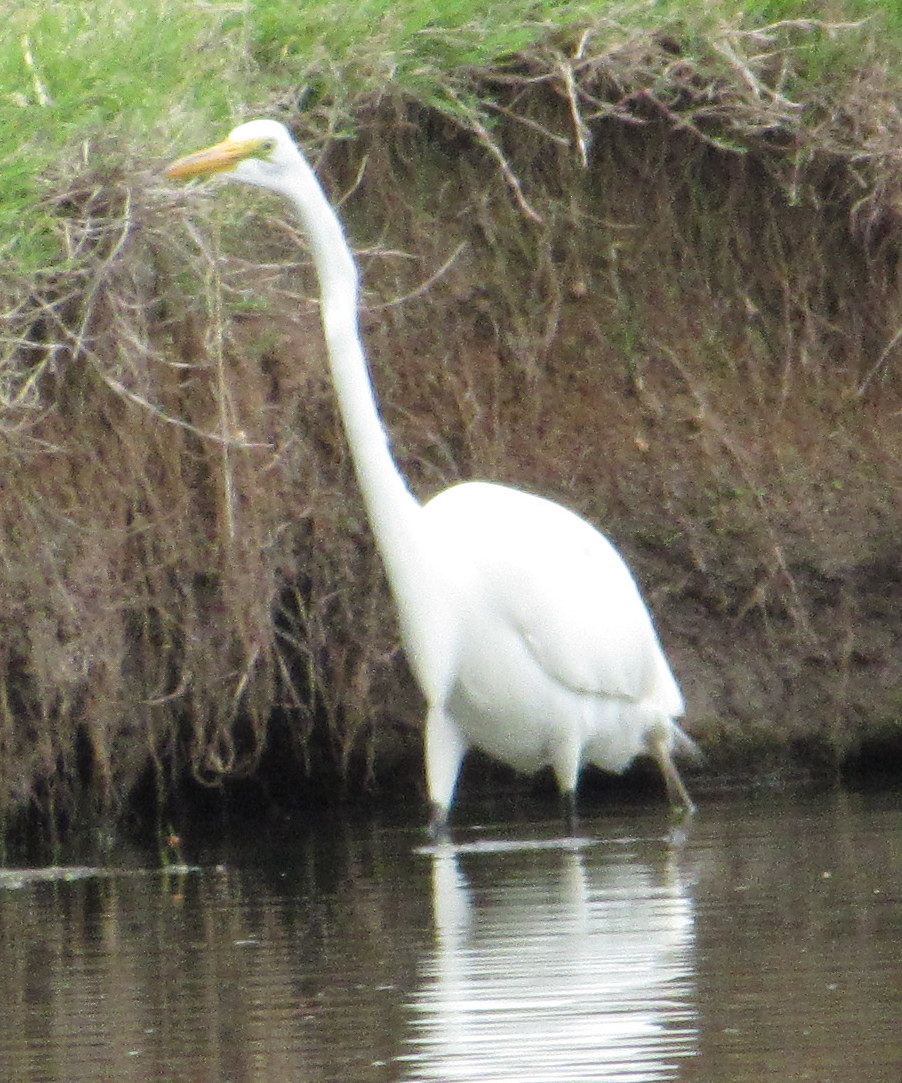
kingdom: Animalia
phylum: Chordata
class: Aves
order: Pelecaniformes
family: Ardeidae
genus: Ardea
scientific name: Ardea alba
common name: Great egret
